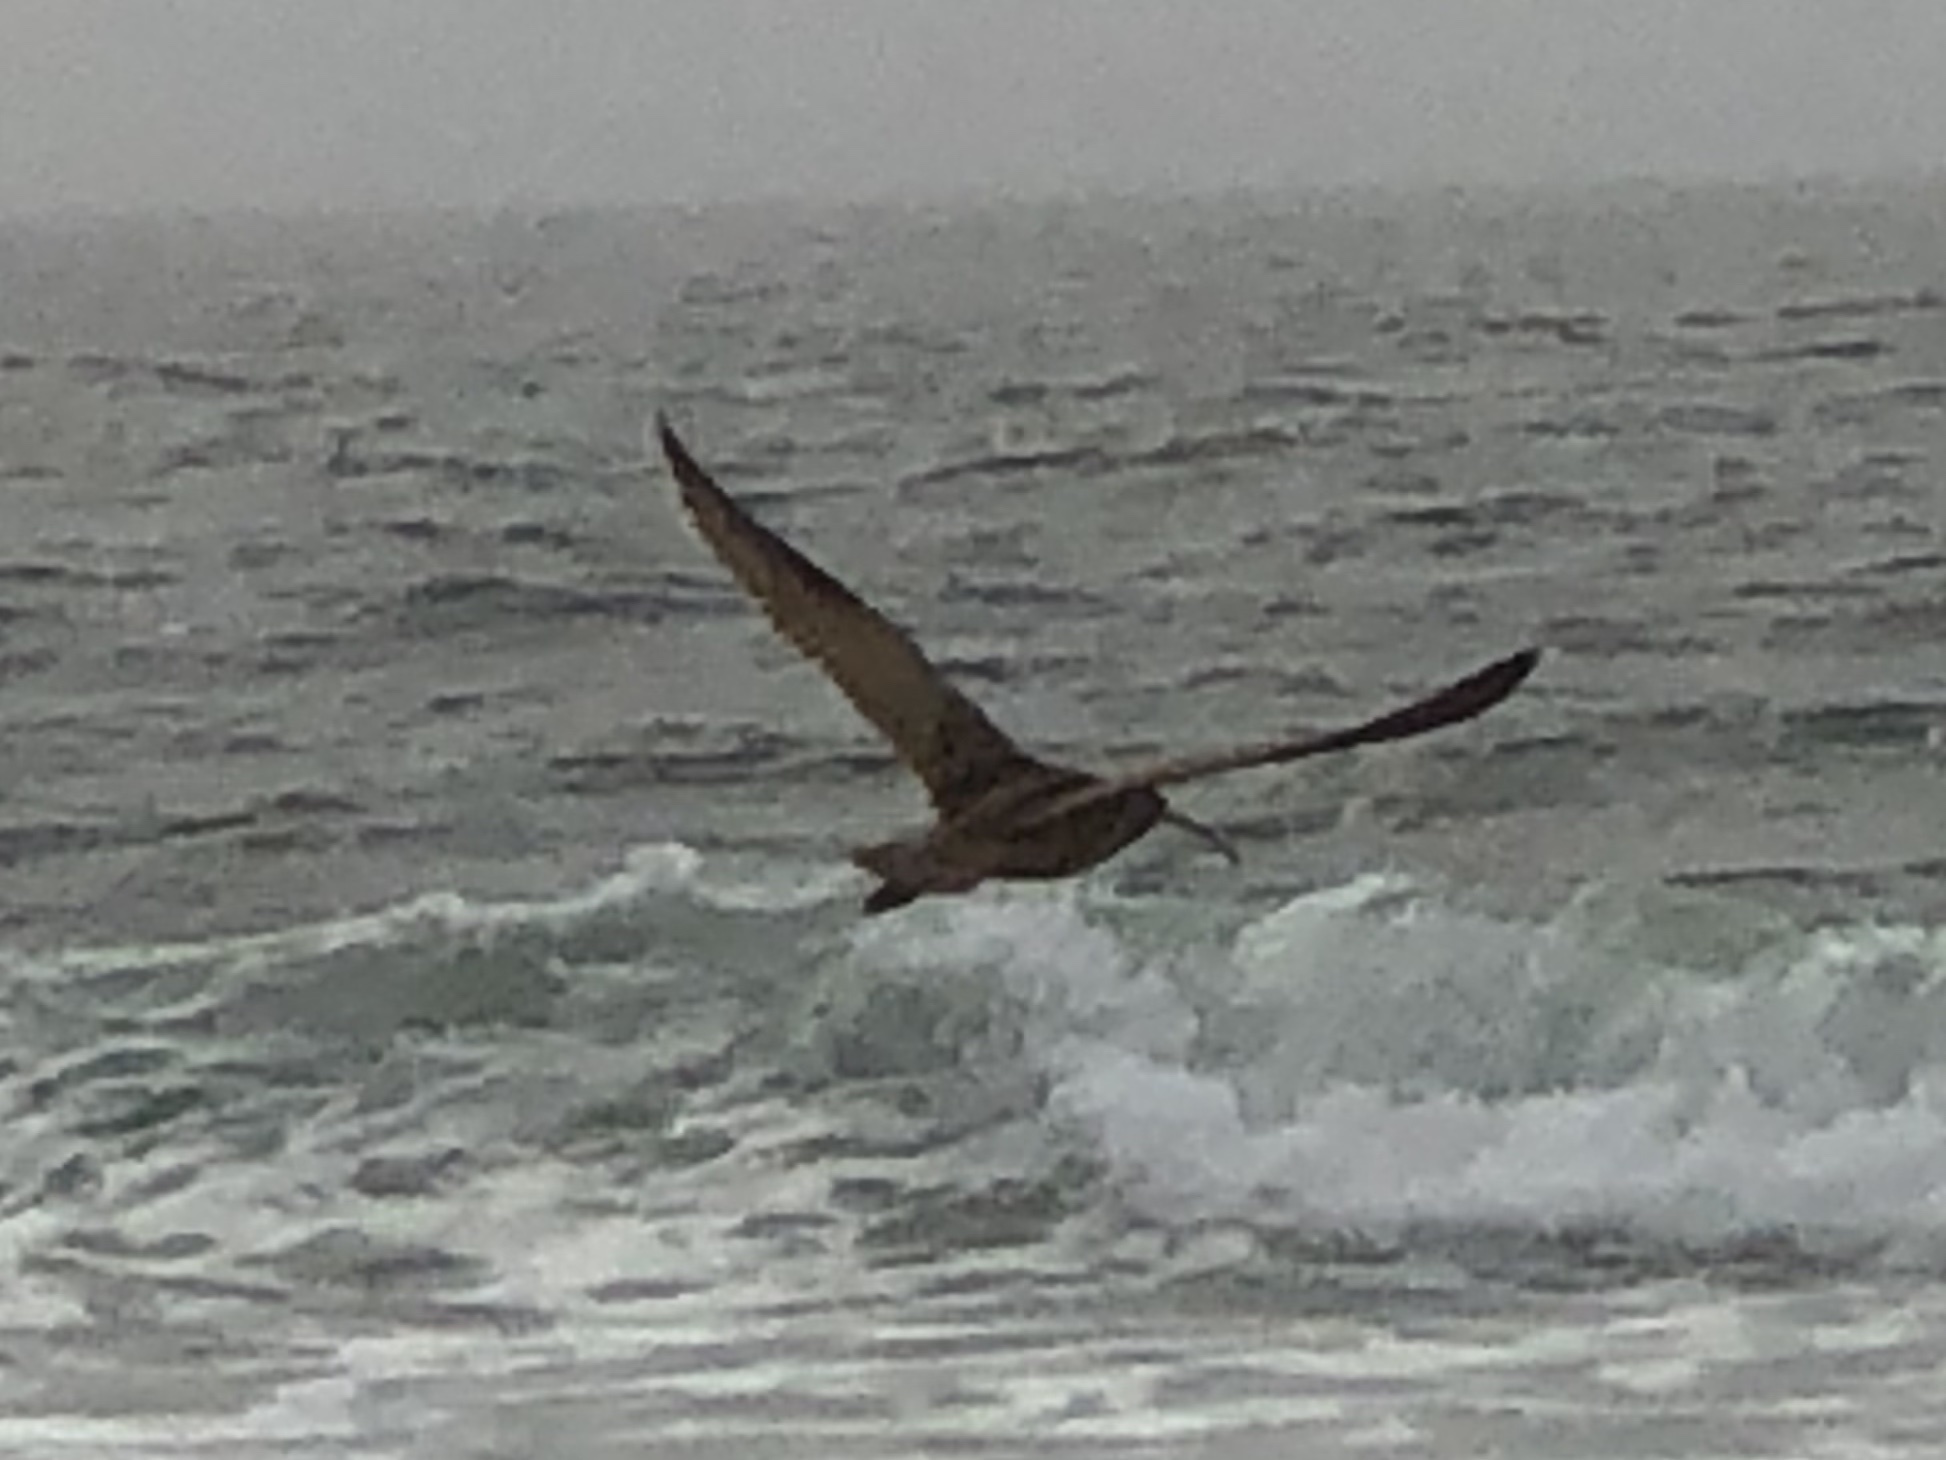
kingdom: Animalia
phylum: Chordata
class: Aves
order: Charadriiformes
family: Scolopacidae
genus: Numenius
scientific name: Numenius americanus
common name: Long-billed curlew
